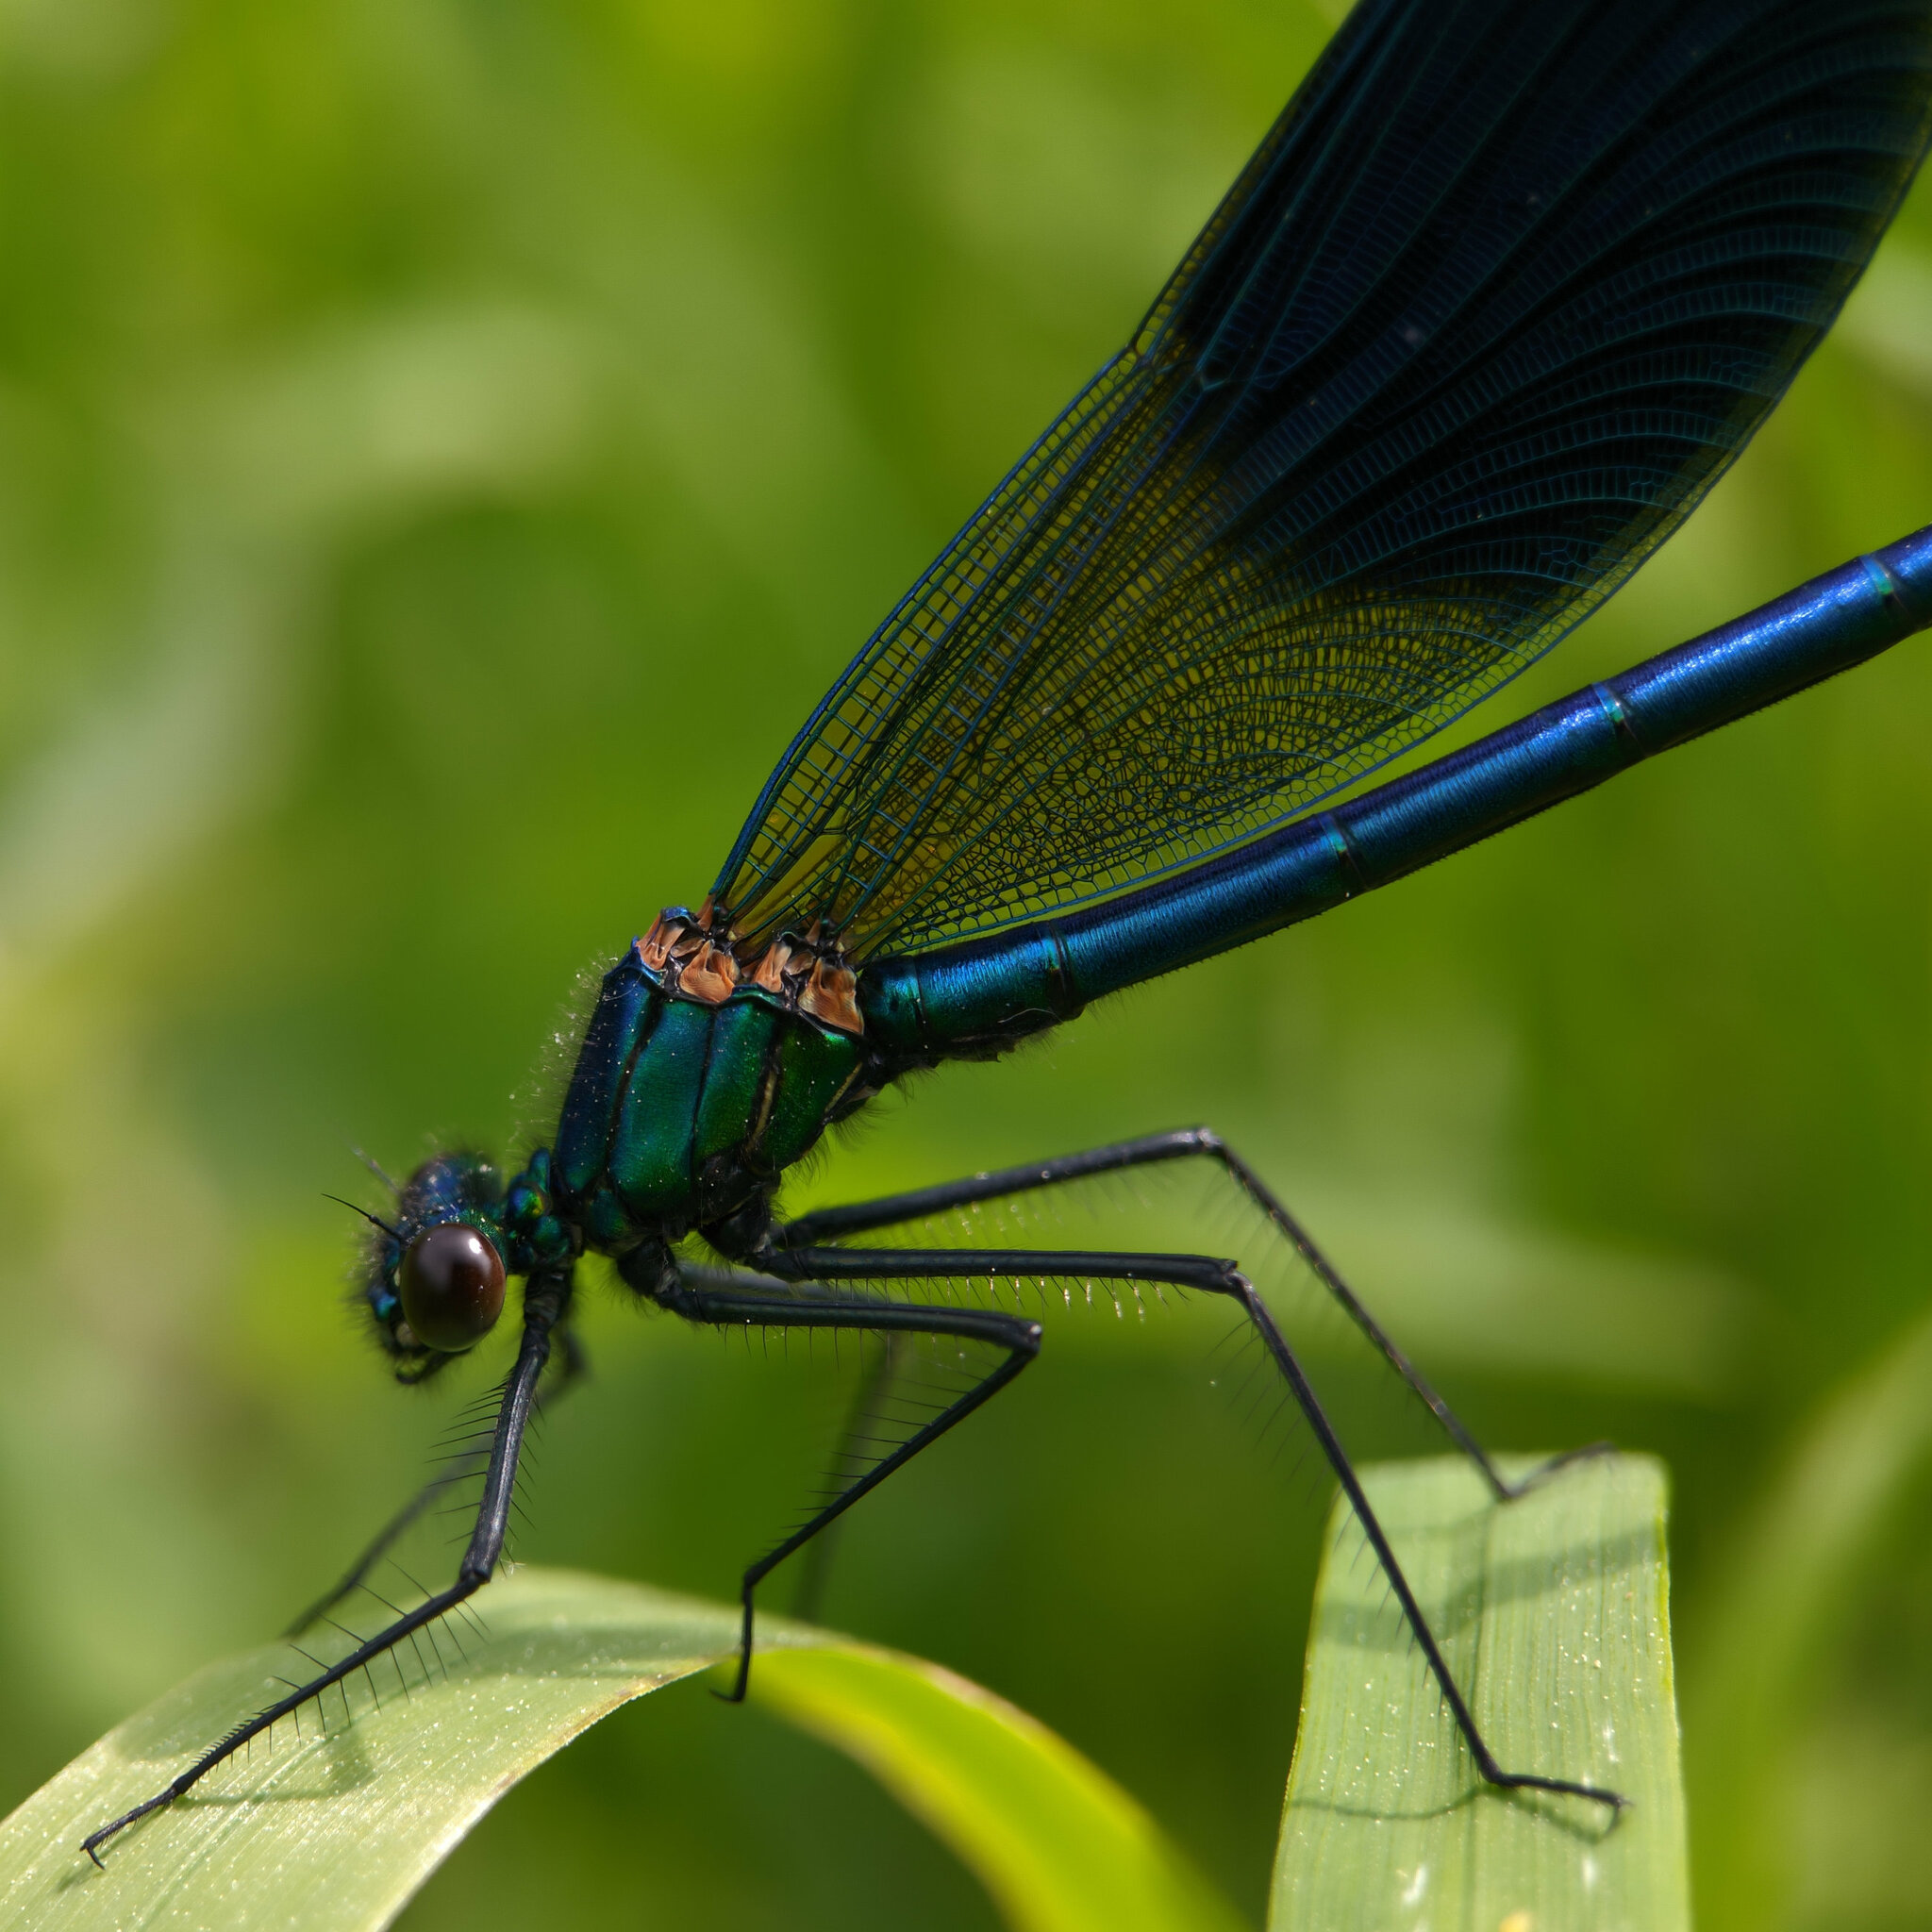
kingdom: Animalia
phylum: Arthropoda
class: Insecta
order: Odonata
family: Calopterygidae
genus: Calopteryx
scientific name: Calopteryx splendens
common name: Banded demoiselle
